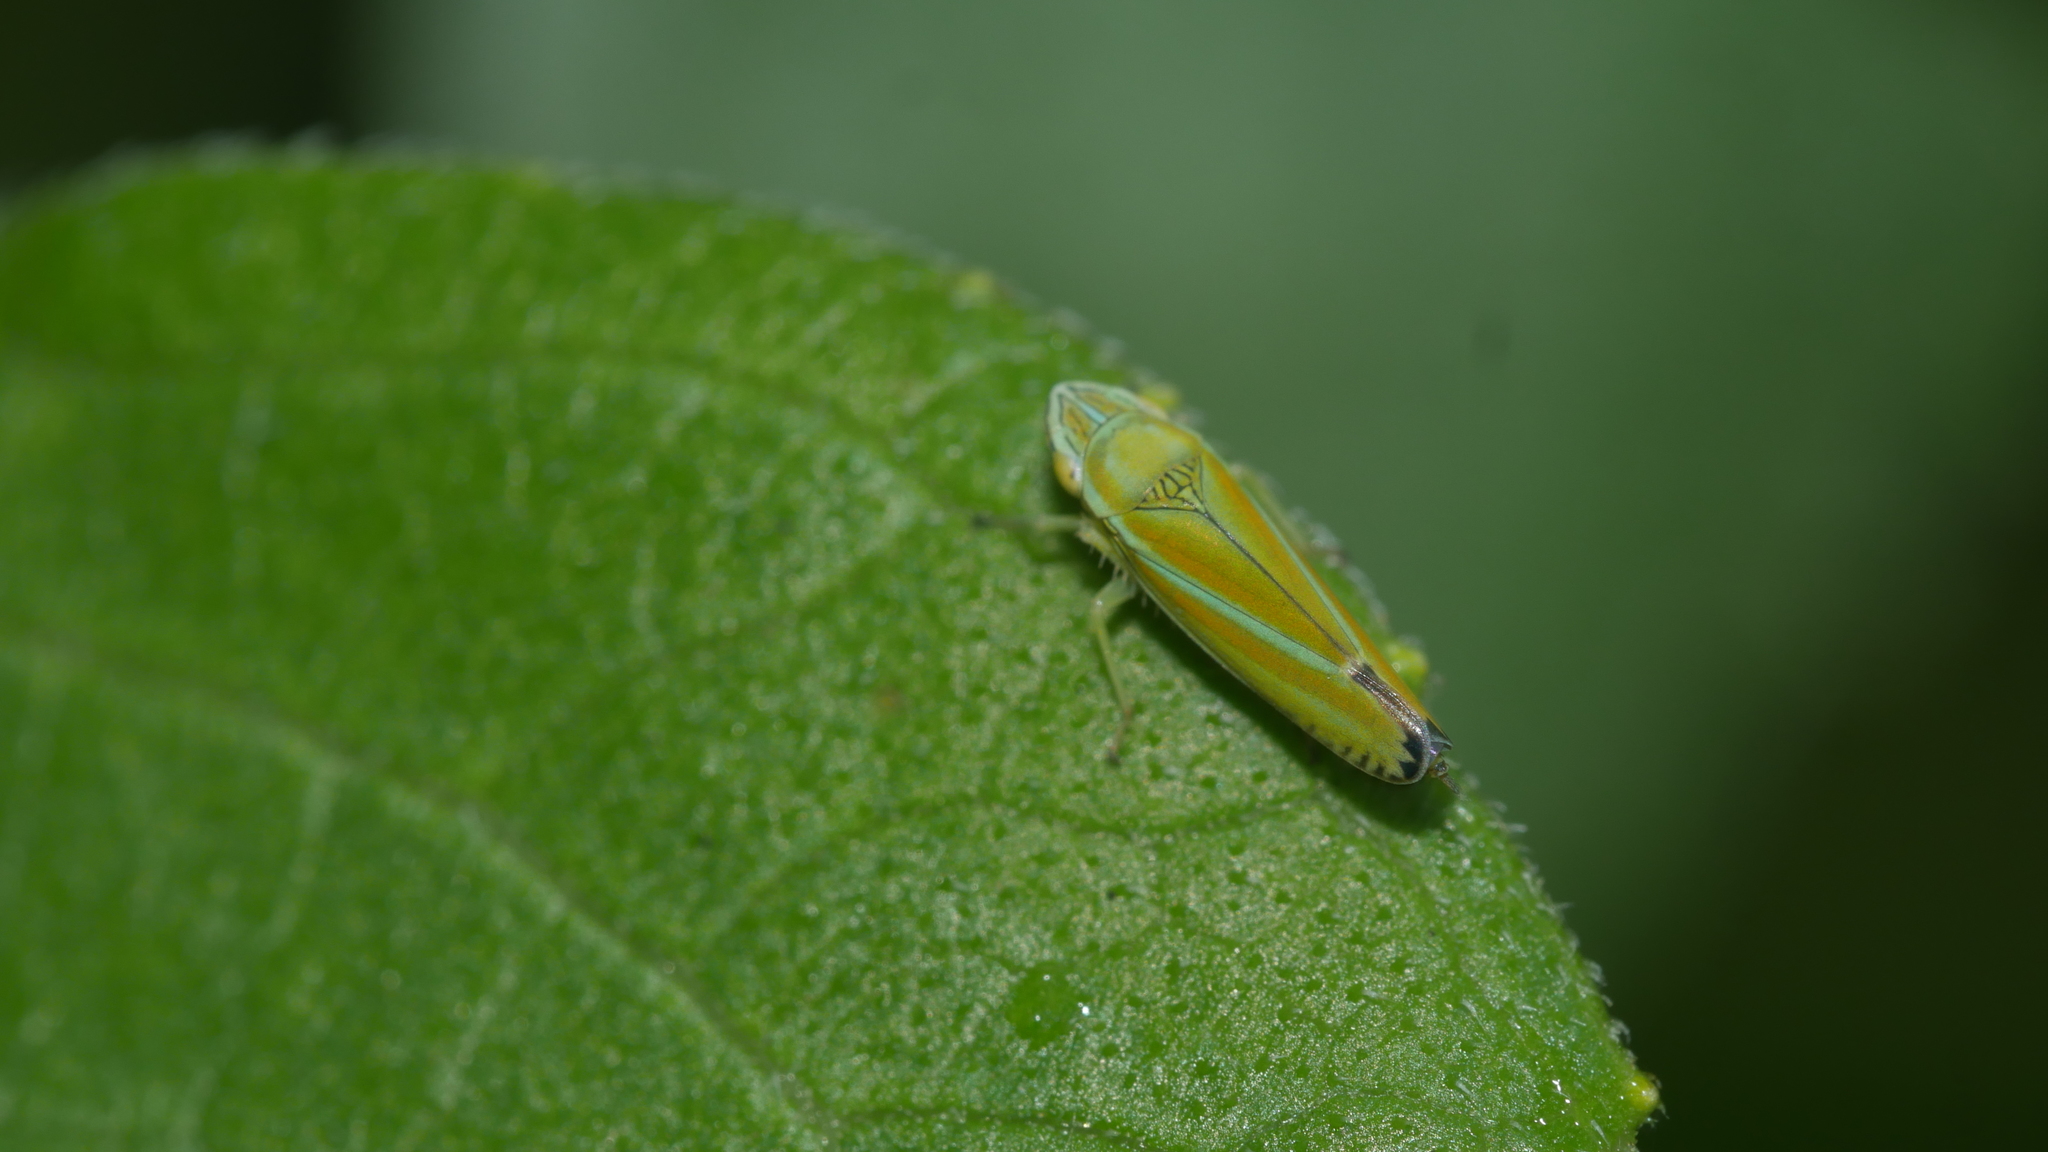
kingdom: Animalia
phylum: Arthropoda
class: Insecta
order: Hemiptera
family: Cicadellidae
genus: Graphocephala
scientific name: Graphocephala versuta
